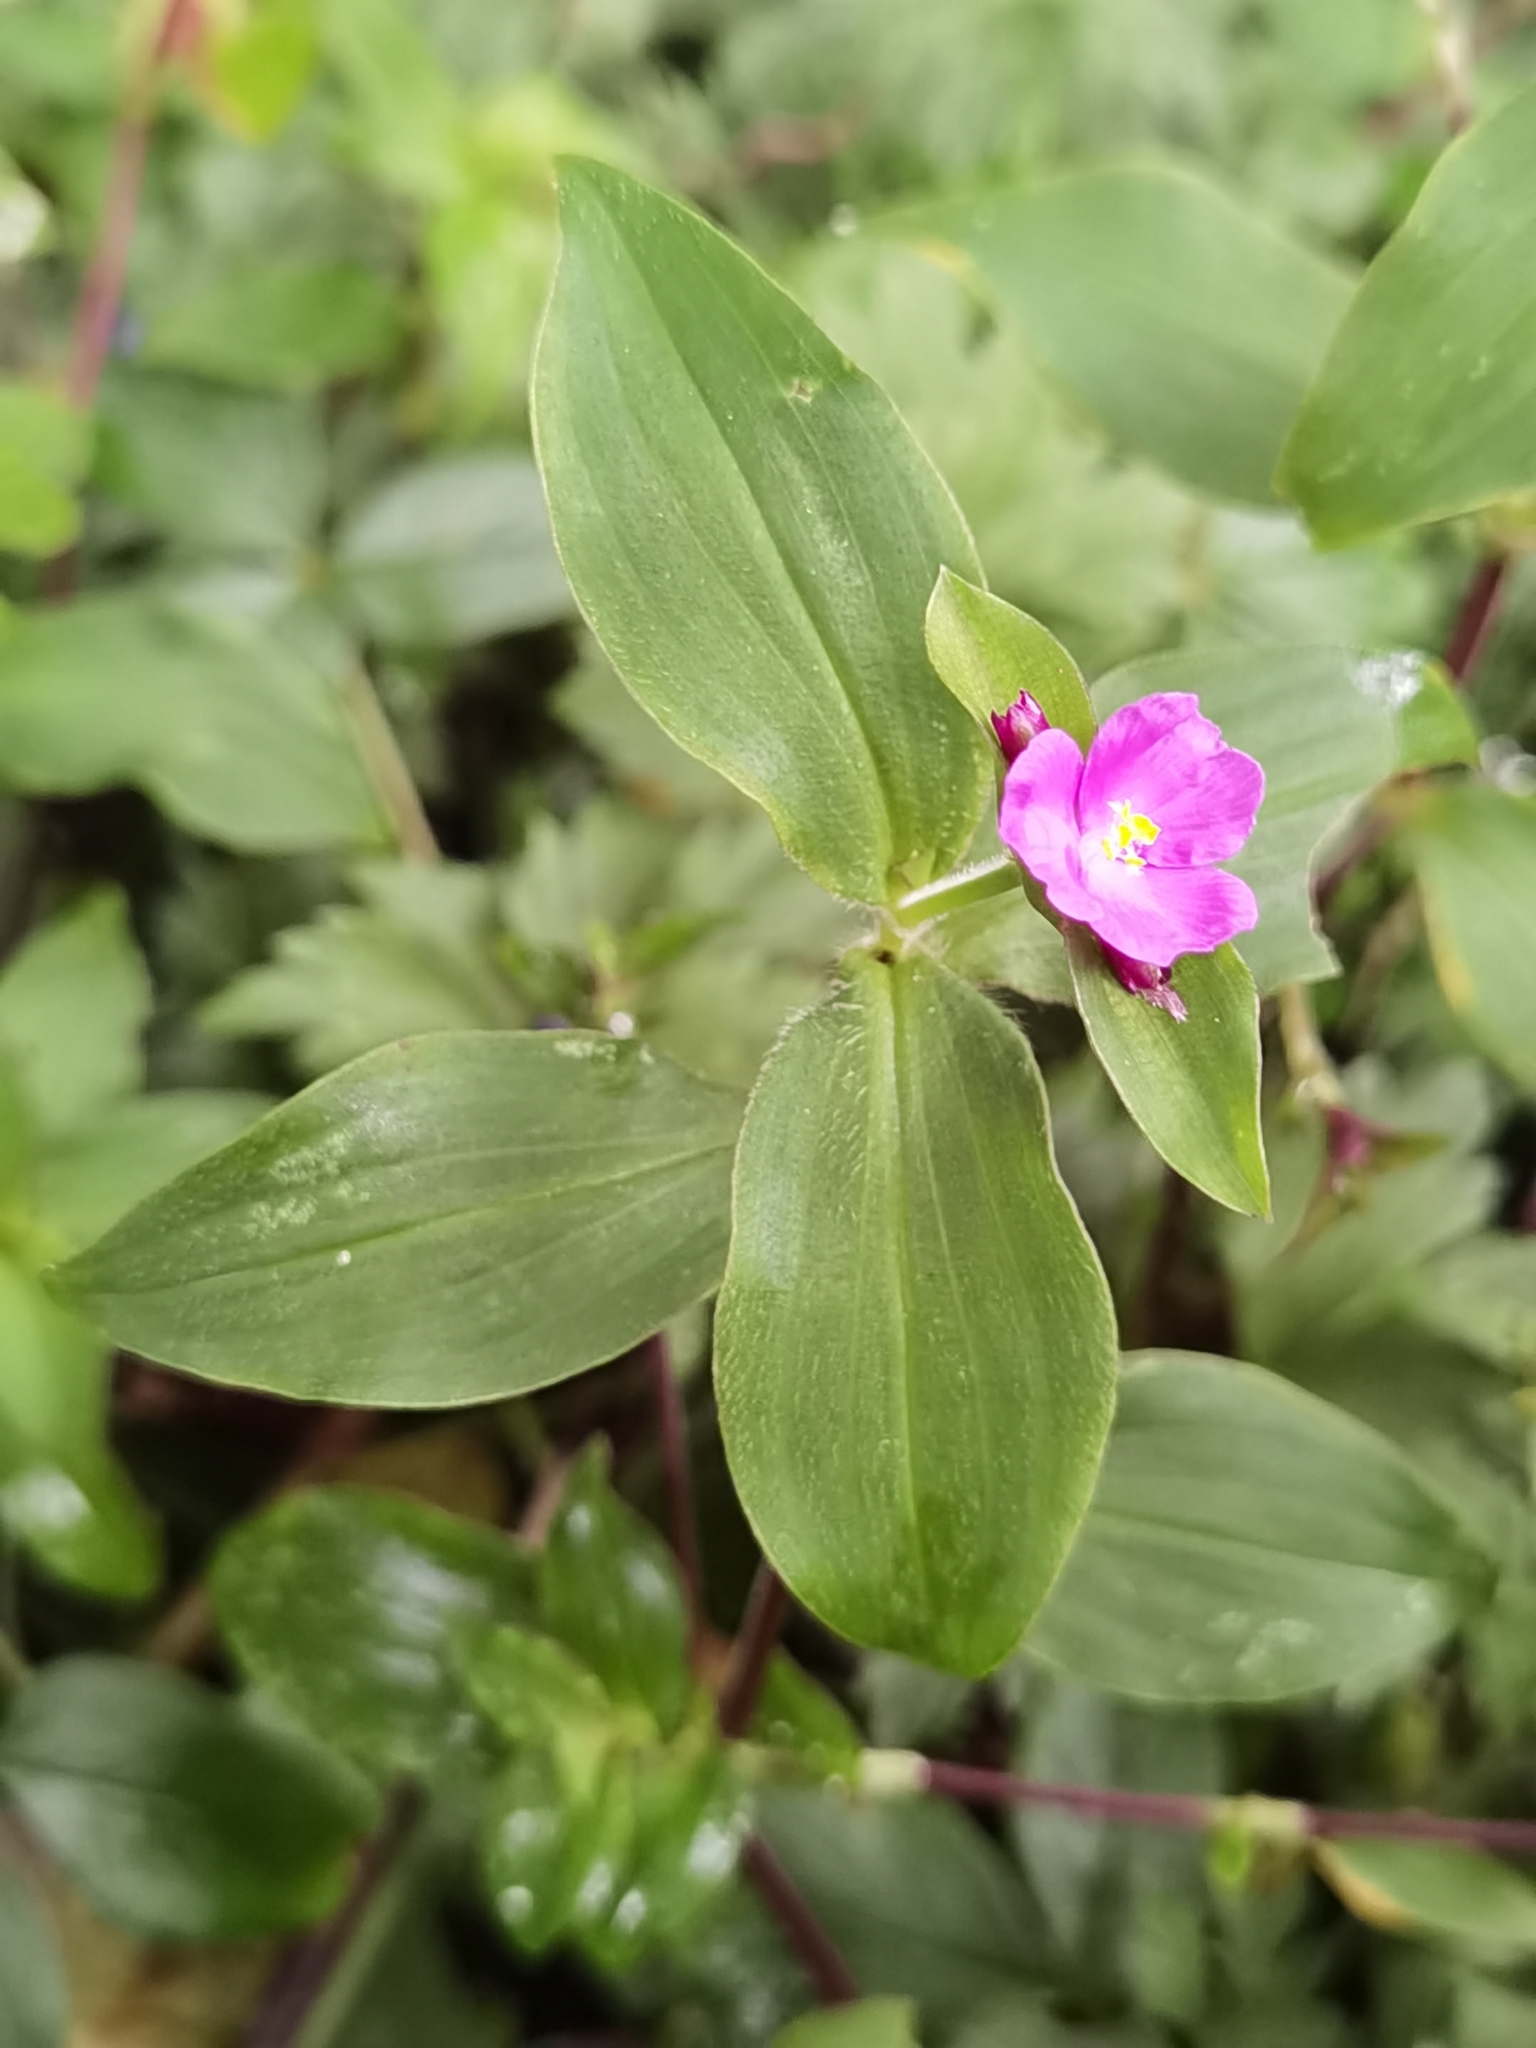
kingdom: Plantae
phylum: Tracheophyta
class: Liliopsida
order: Commelinales
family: Commelinaceae
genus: Tradescantia
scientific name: Tradescantia poelliae
